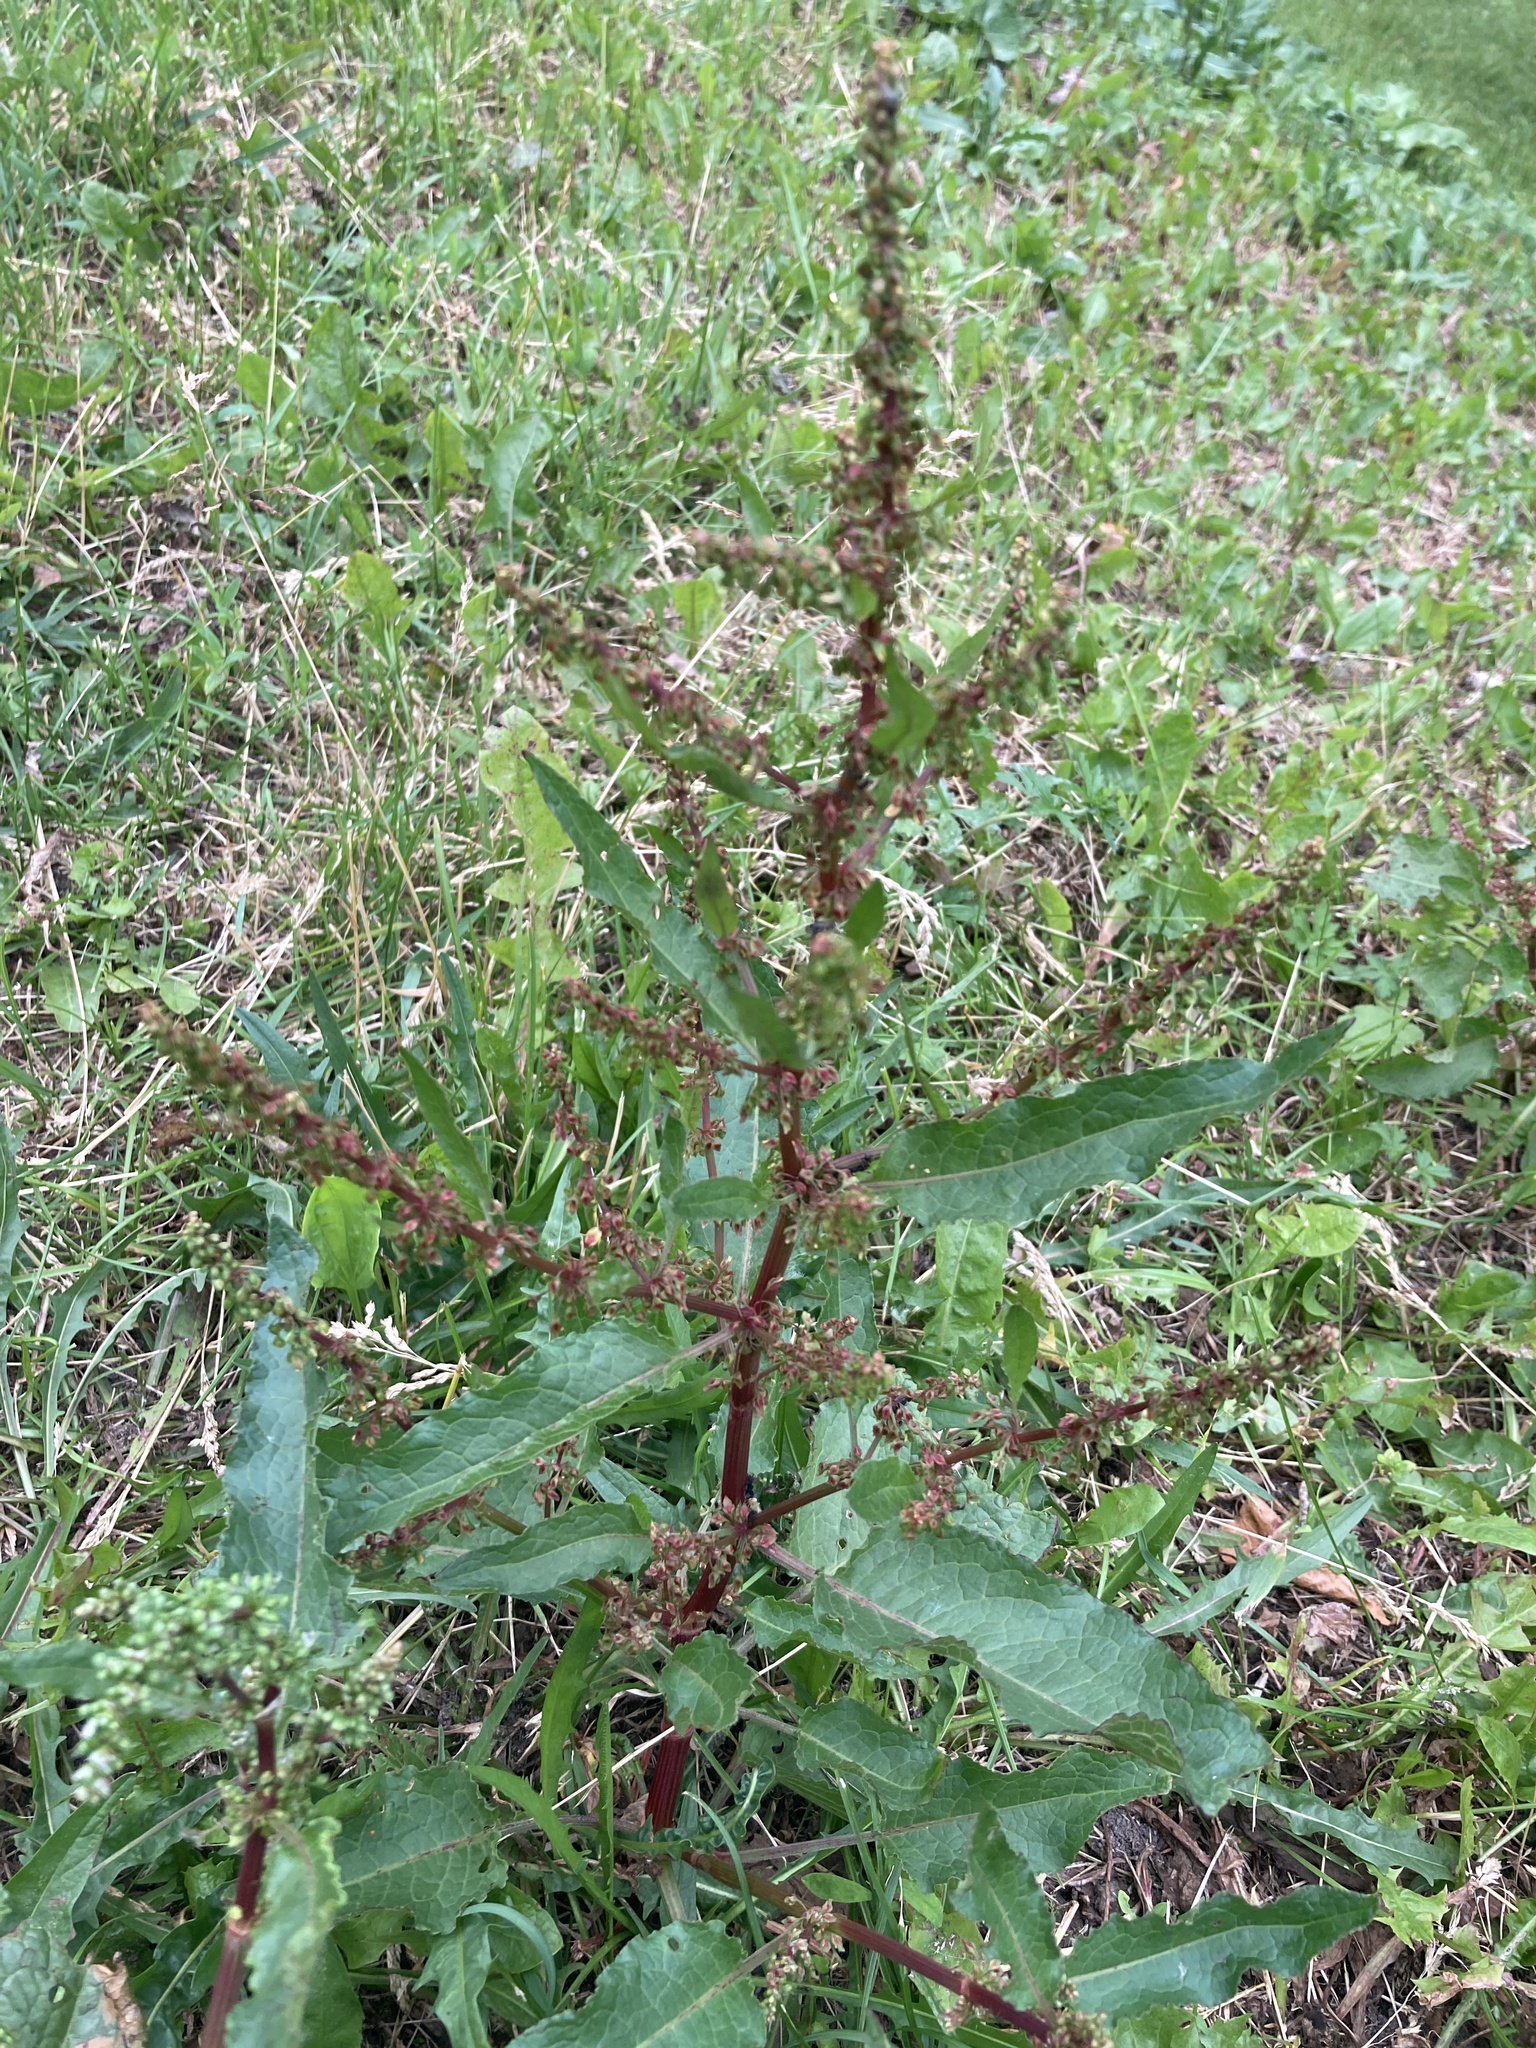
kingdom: Plantae
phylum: Tracheophyta
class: Magnoliopsida
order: Caryophyllales
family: Polygonaceae
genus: Rumex
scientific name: Rumex obtusifolius
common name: Bitter dock
